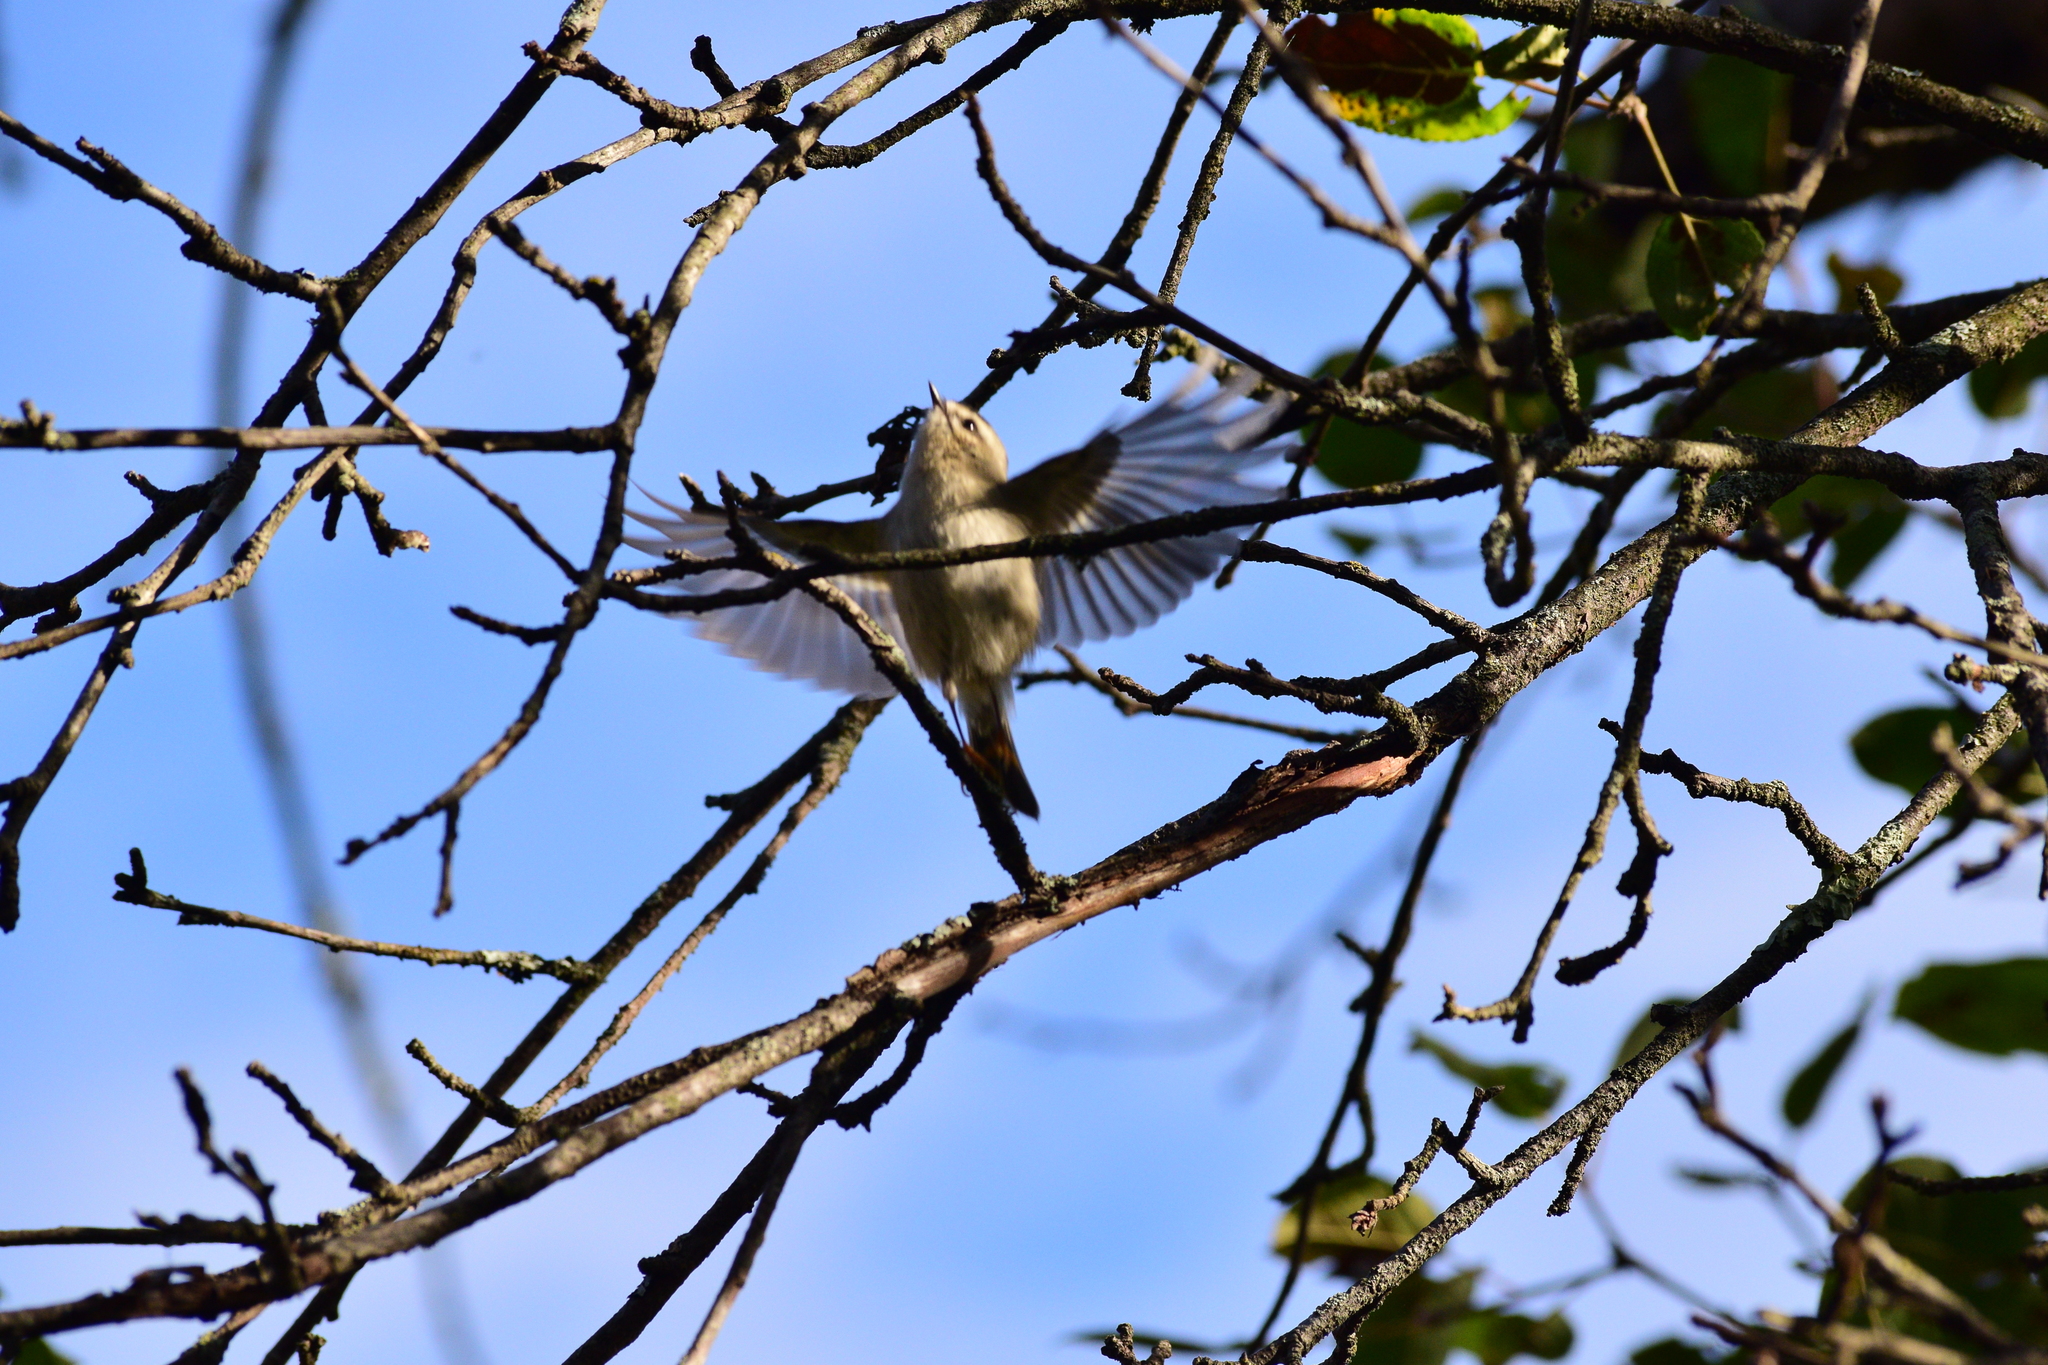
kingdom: Animalia
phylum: Chordata
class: Aves
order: Passeriformes
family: Regulidae
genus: Regulus
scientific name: Regulus satrapa
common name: Golden-crowned kinglet
